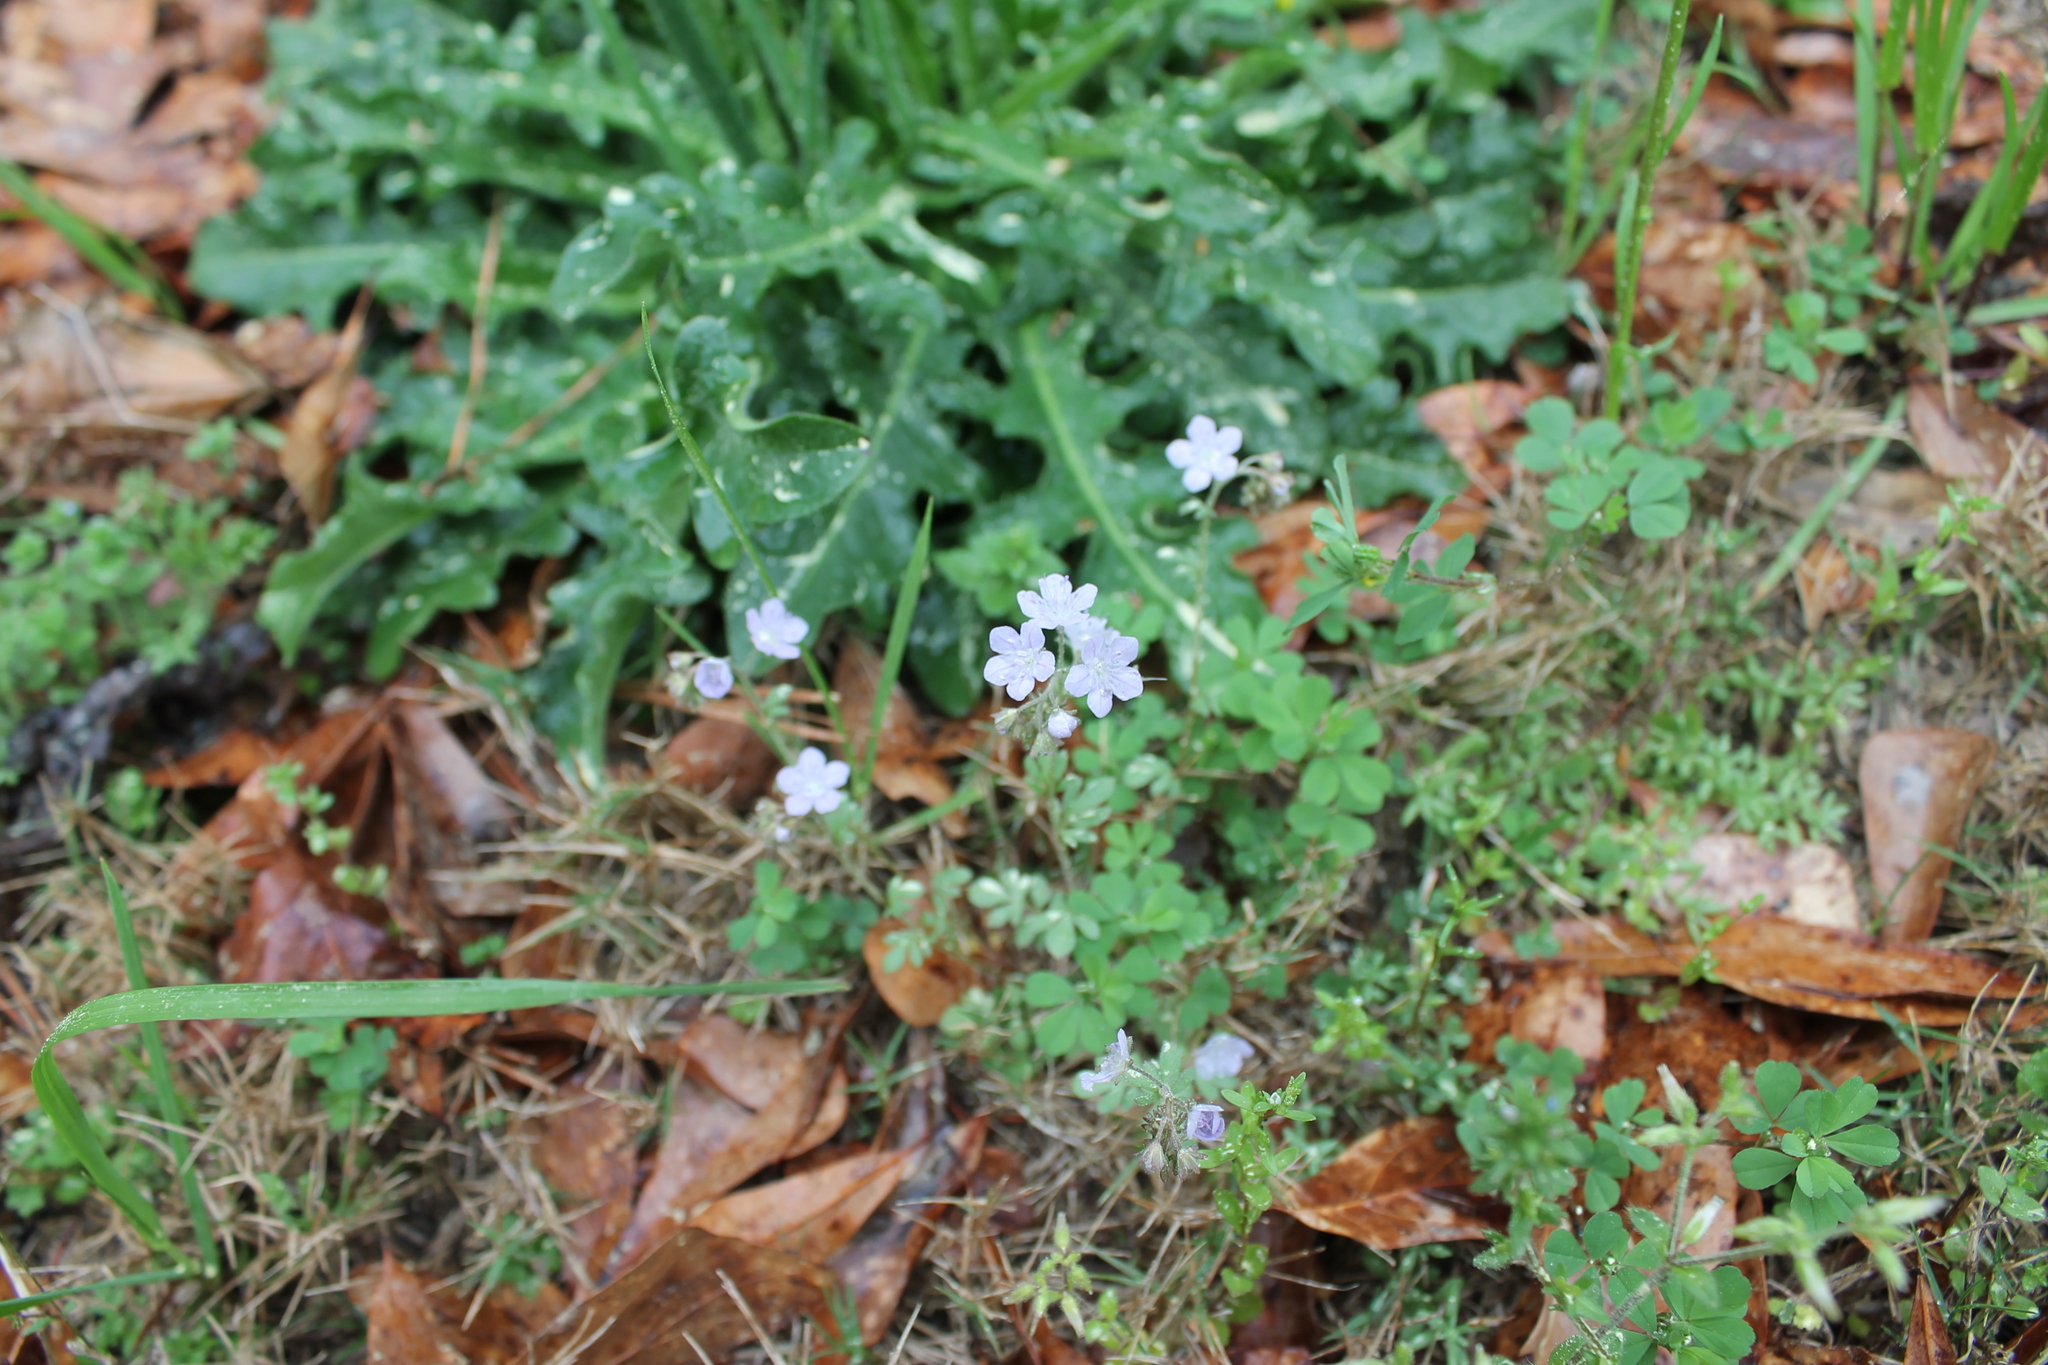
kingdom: Plantae
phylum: Tracheophyta
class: Magnoliopsida
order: Boraginales
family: Hydrophyllaceae
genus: Phacelia
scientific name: Phacelia dubia
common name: Appalachian phacelia
